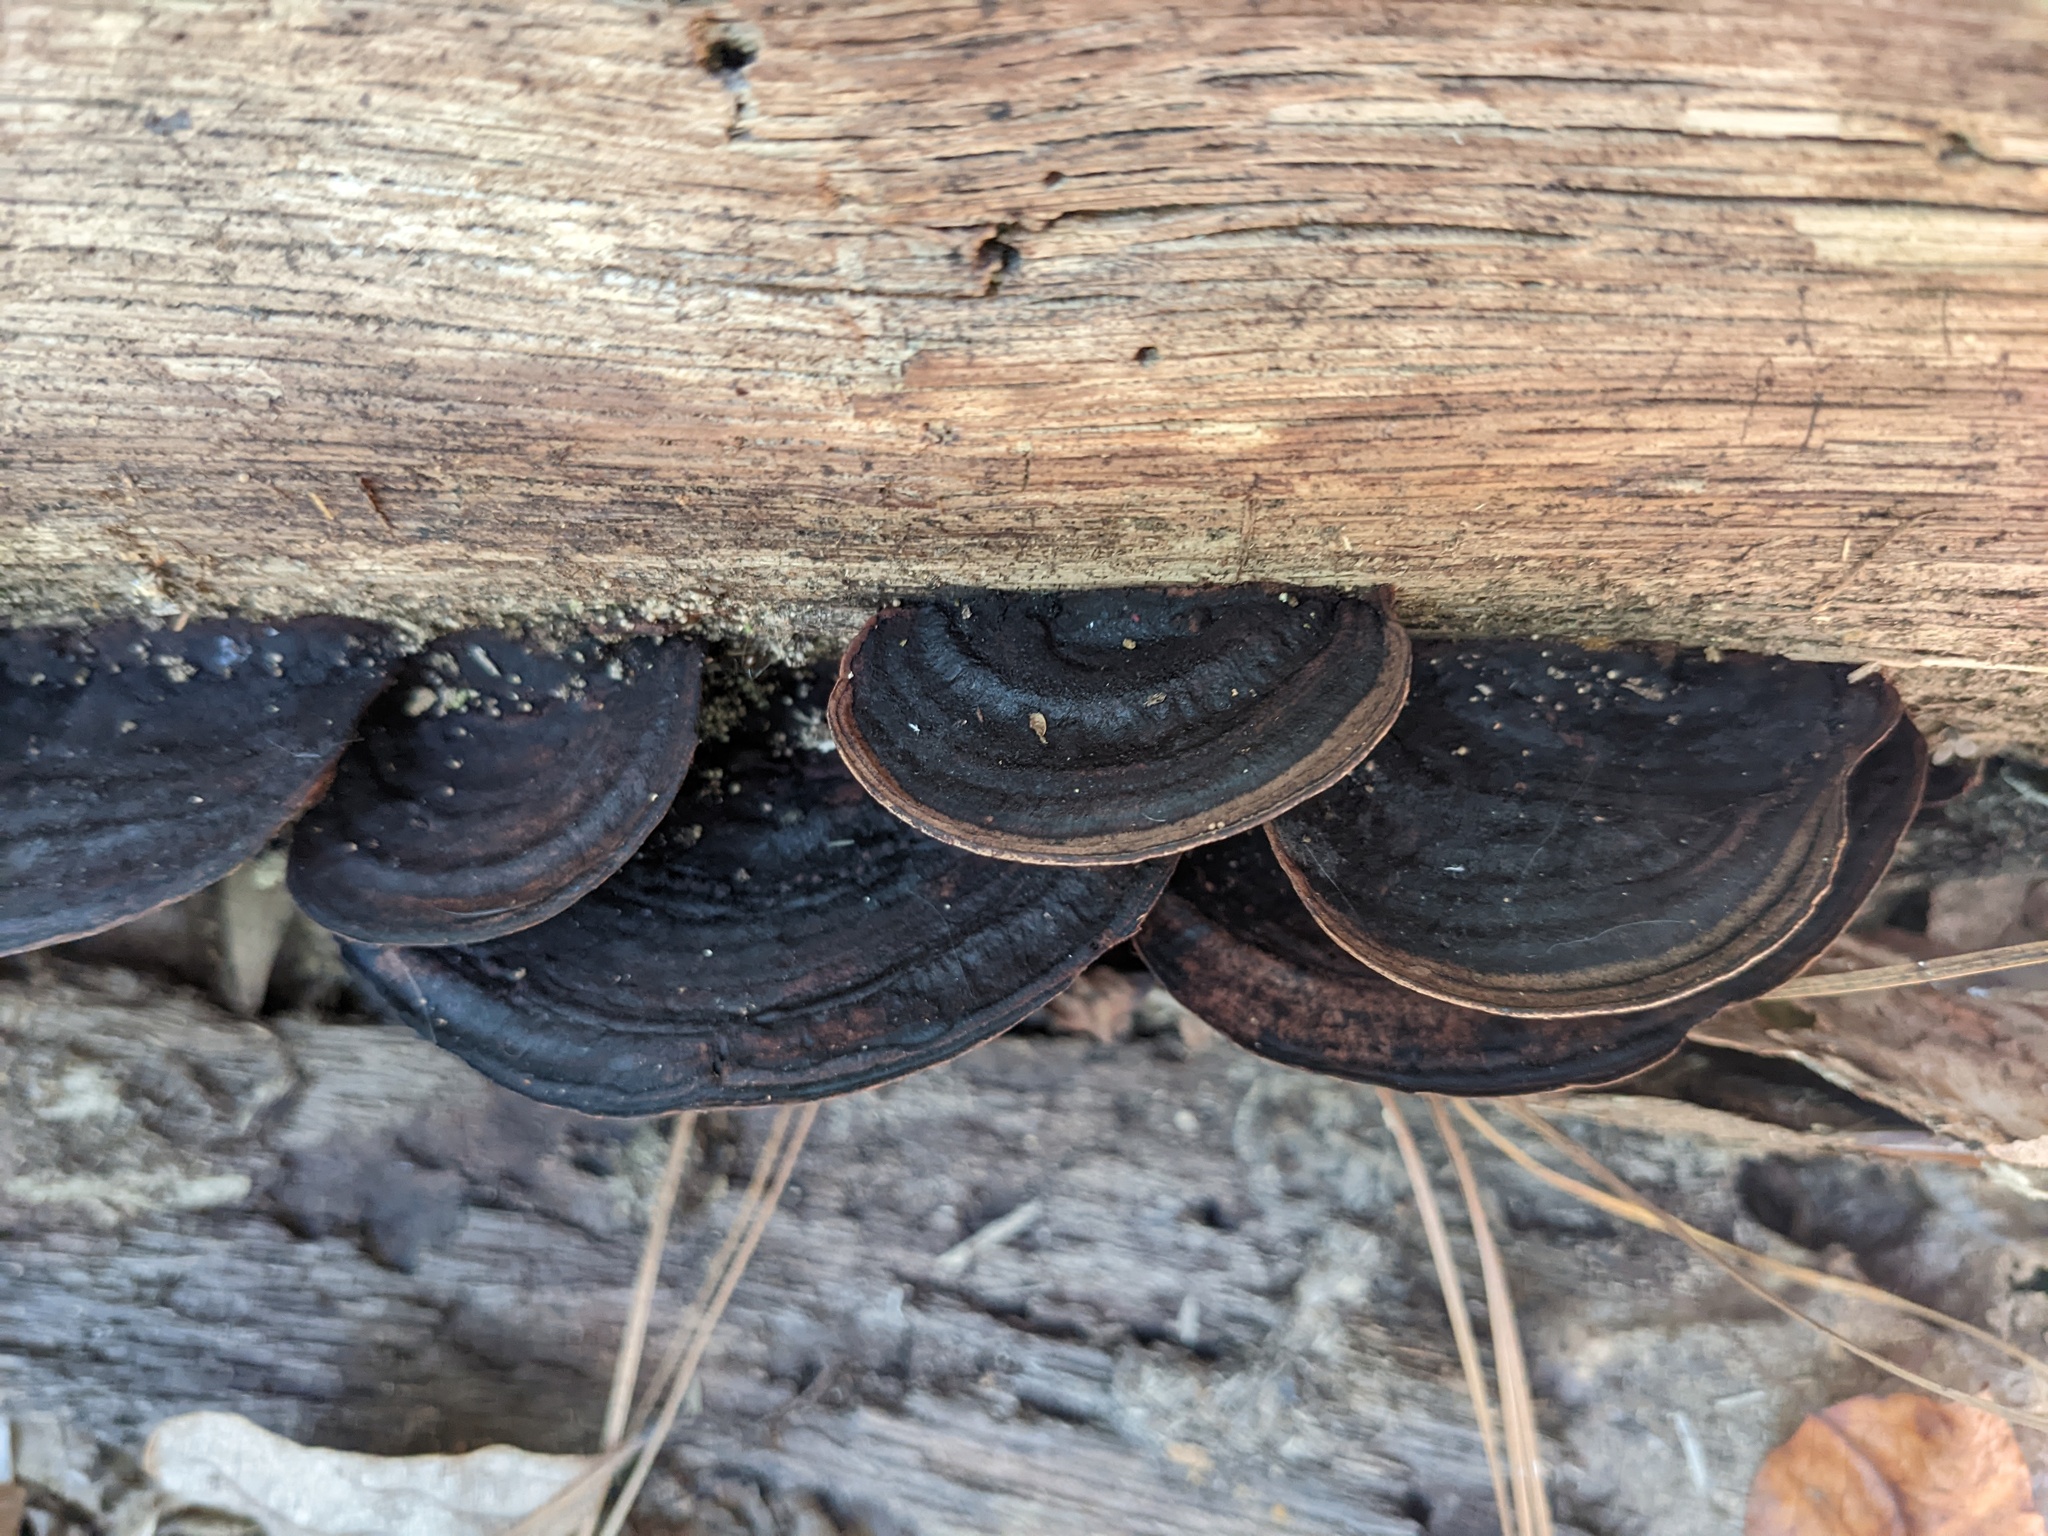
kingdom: Fungi
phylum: Basidiomycota
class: Agaricomycetes
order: Polyporales
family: Steccherinaceae
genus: Nigroporus
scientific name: Nigroporus vinosus
